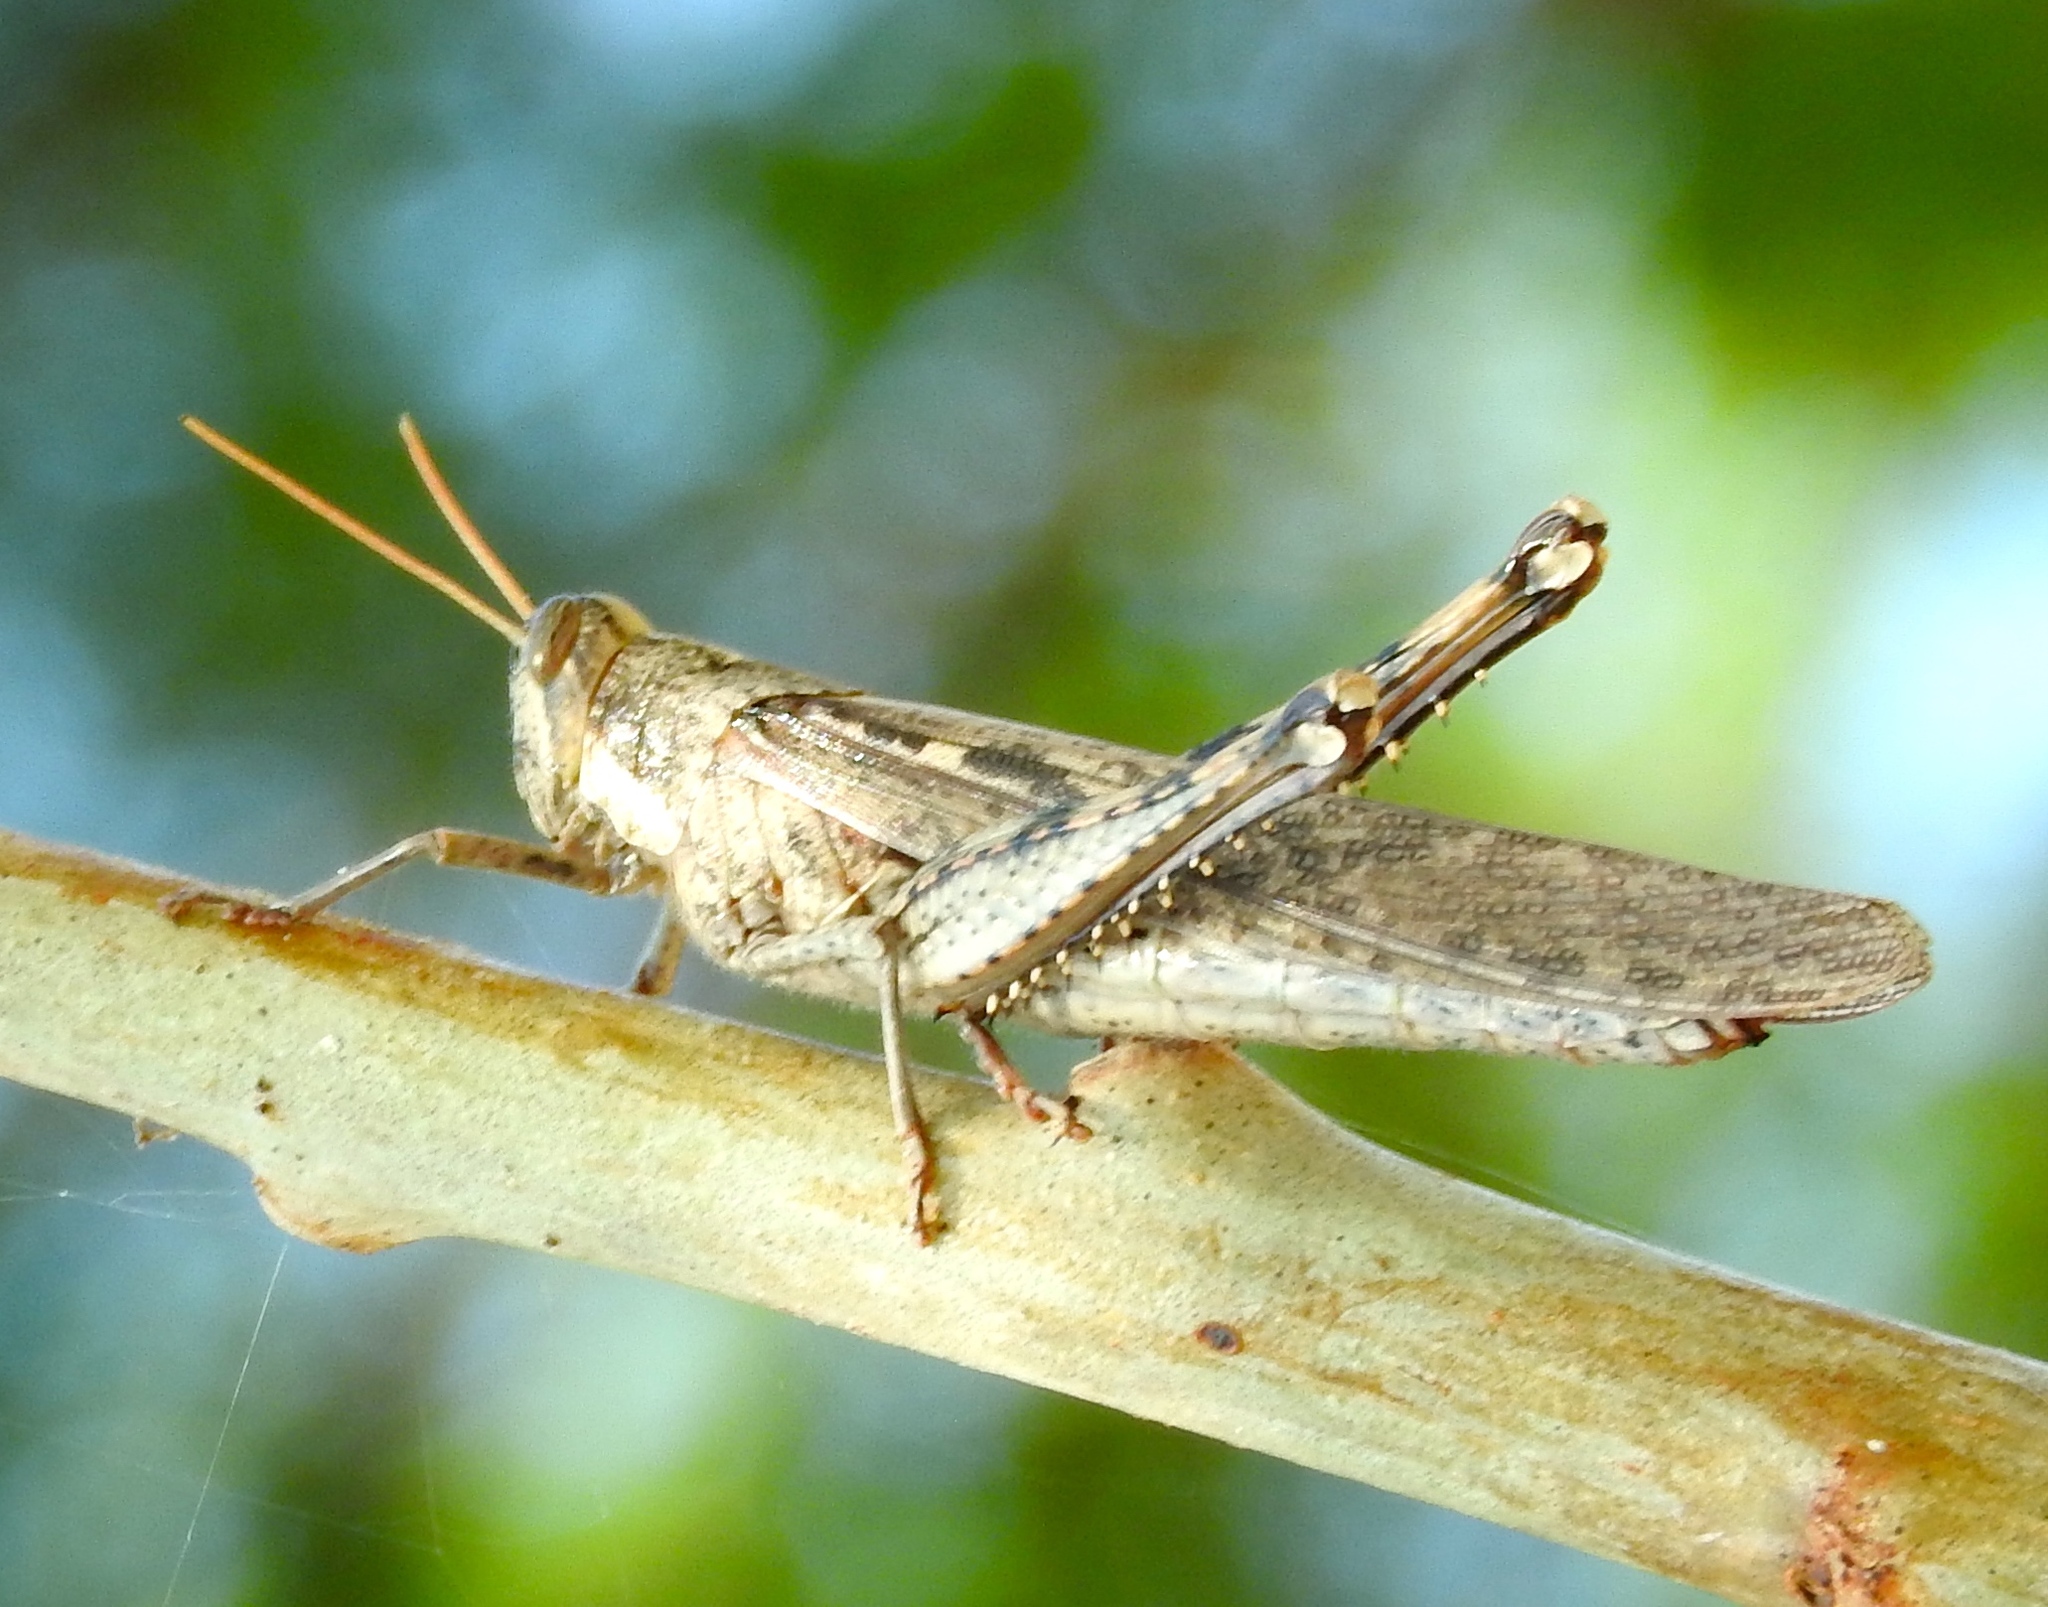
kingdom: Animalia
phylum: Arthropoda
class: Insecta
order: Orthoptera
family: Acrididae
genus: Schistocerca
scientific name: Schistocerca nitens
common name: Vagrant grasshopper
